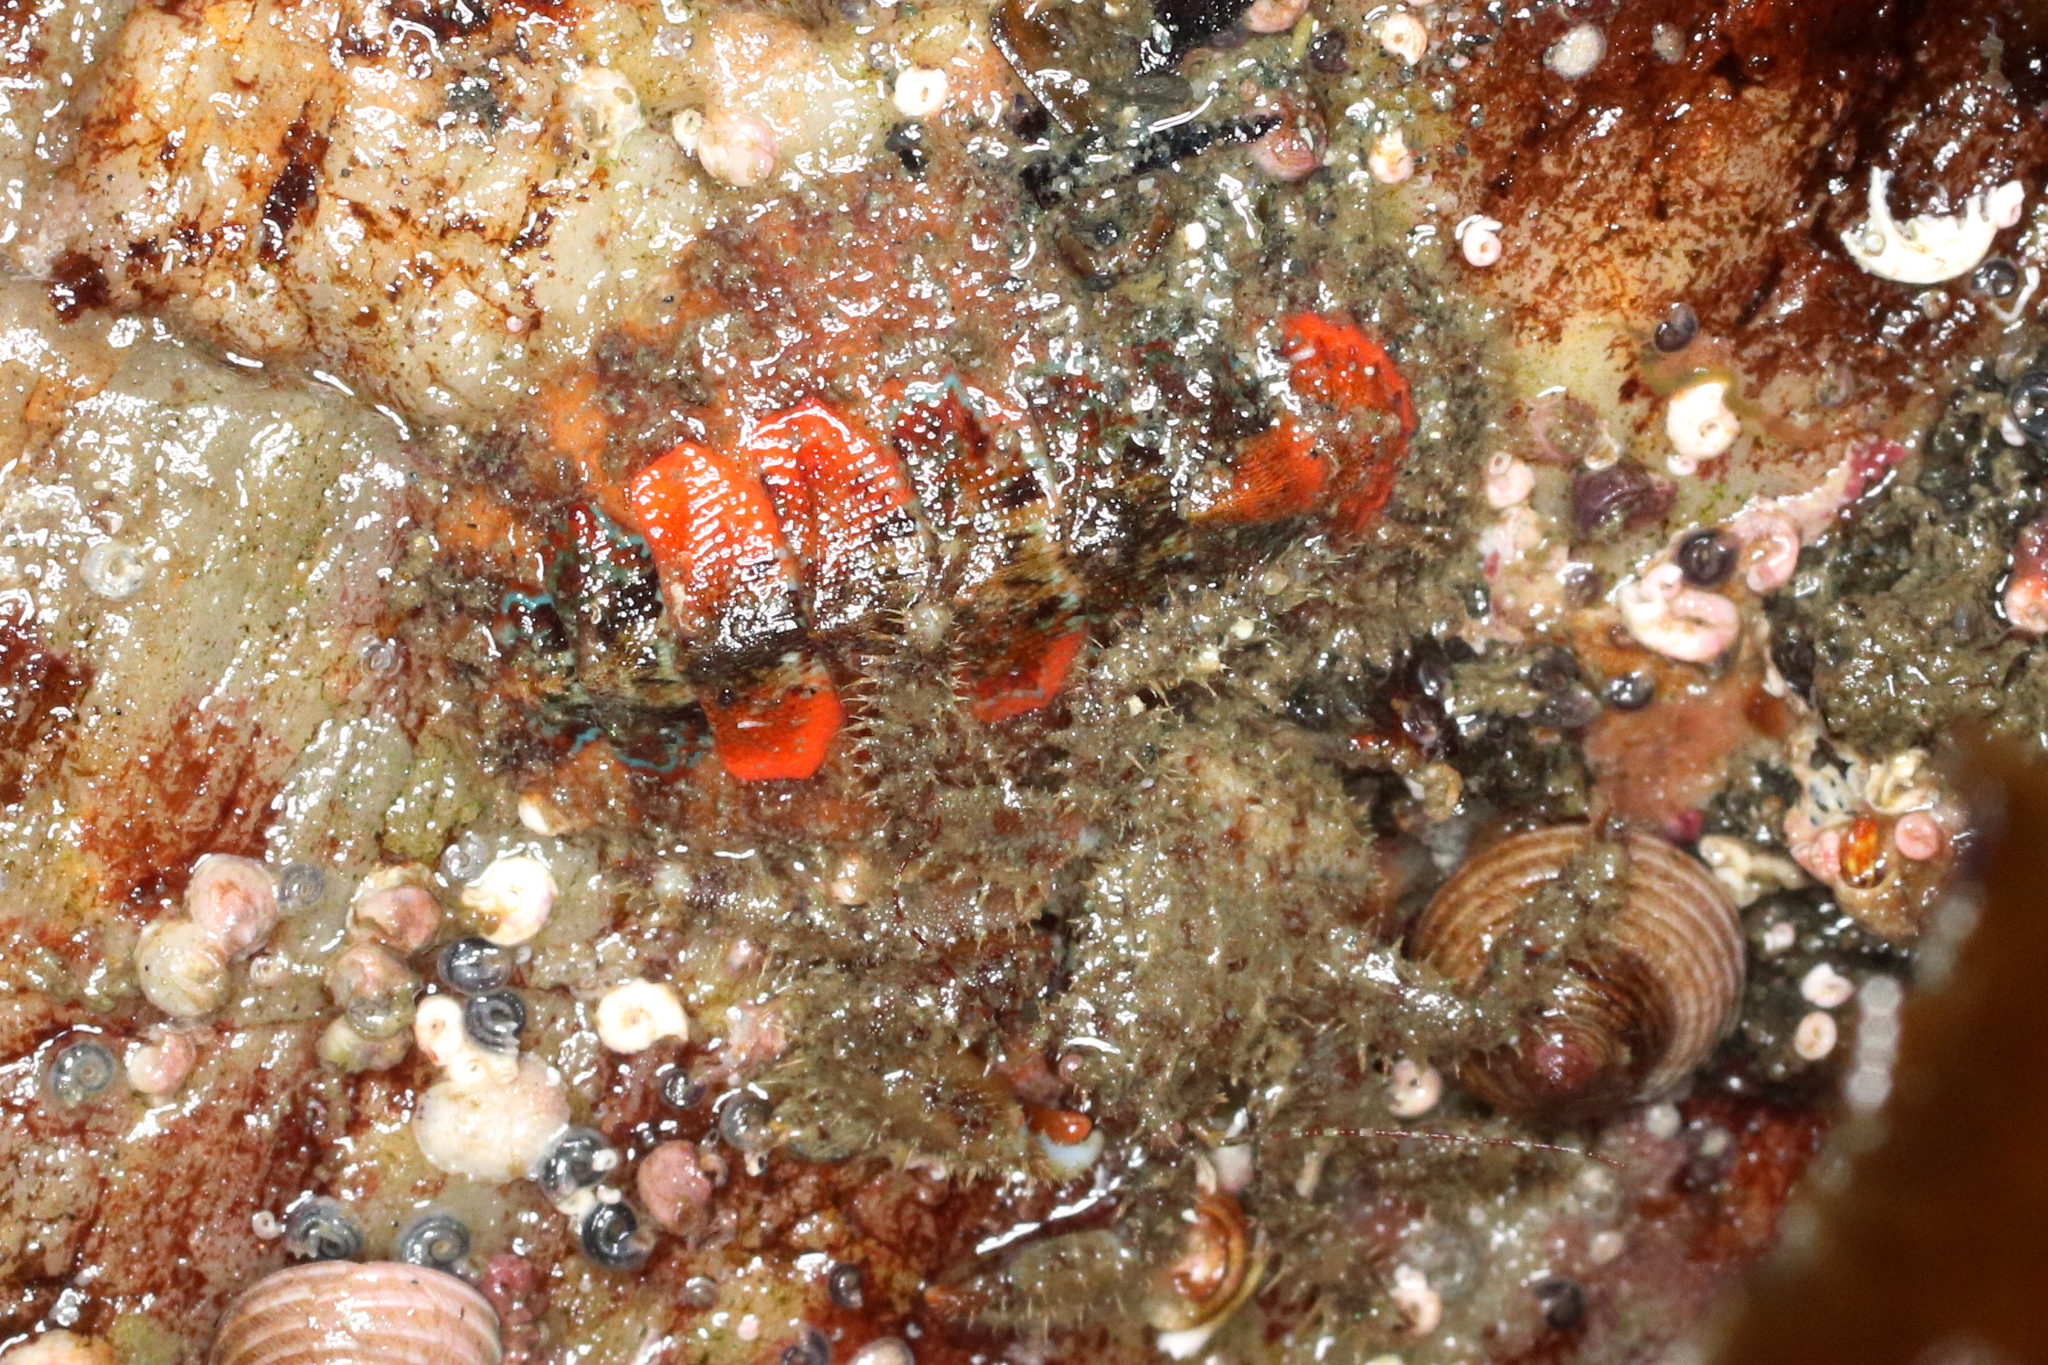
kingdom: Animalia
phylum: Mollusca
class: Polyplacophora
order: Chitonida
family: Mopaliidae
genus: Mopalia
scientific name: Mopalia spectabilis
